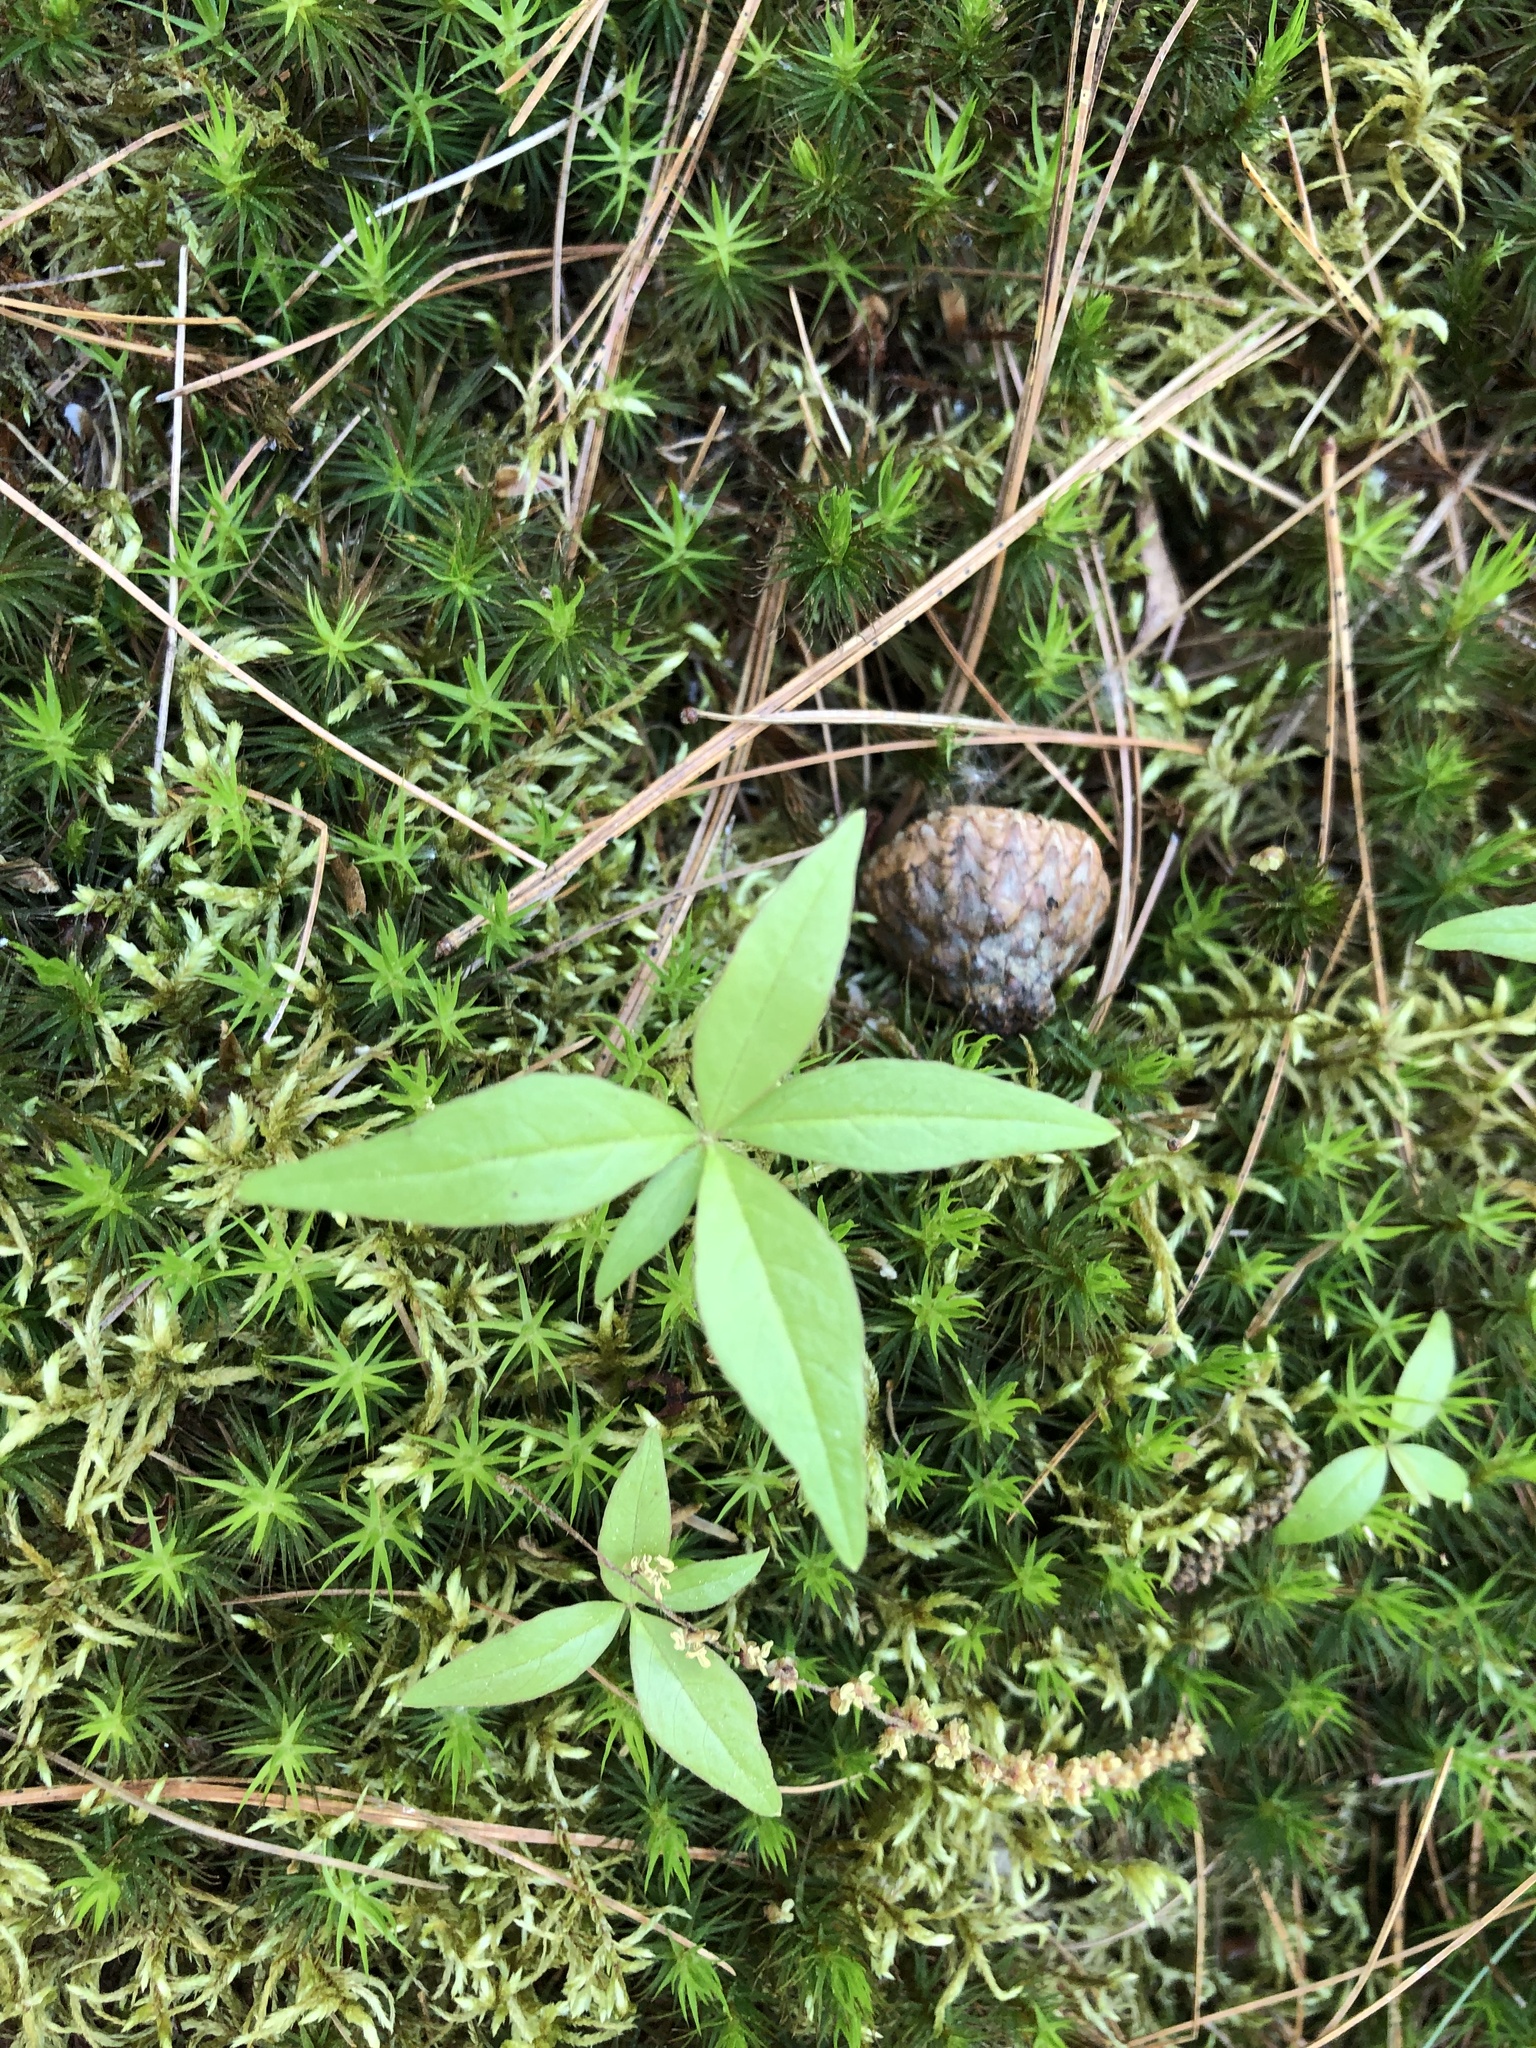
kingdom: Plantae
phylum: Tracheophyta
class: Magnoliopsida
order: Ericales
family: Primulaceae
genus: Lysimachia
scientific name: Lysimachia borealis
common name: American starflower
